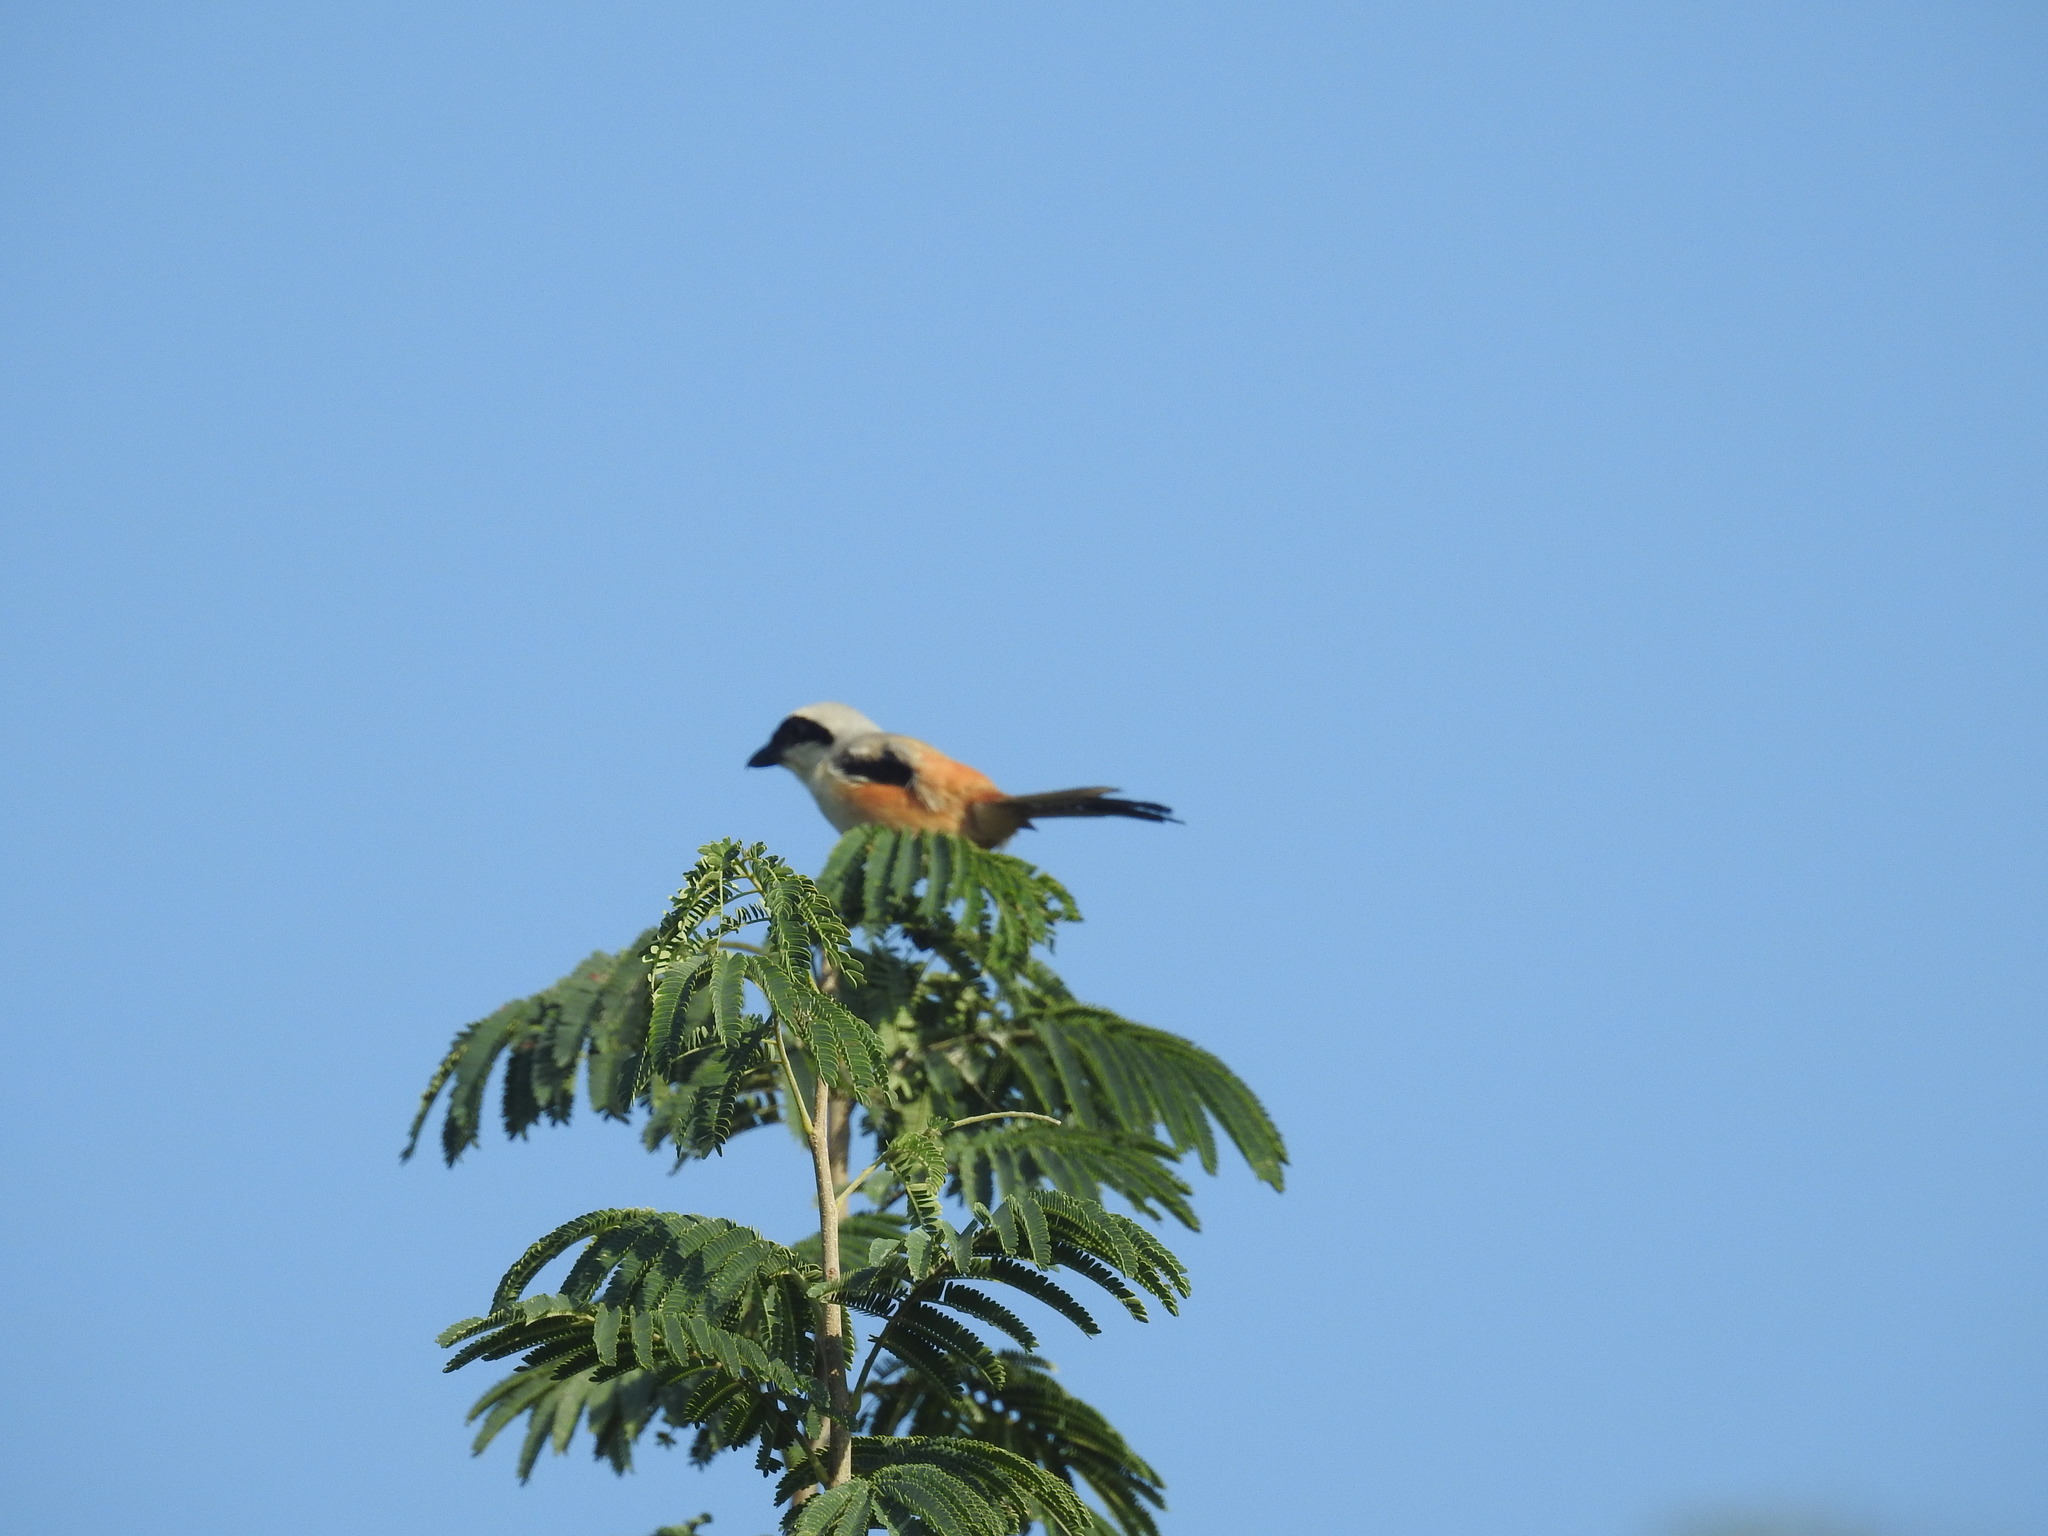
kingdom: Animalia
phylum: Chordata
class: Aves
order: Passeriformes
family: Laniidae
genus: Lanius
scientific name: Lanius schach
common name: Long-tailed shrike
